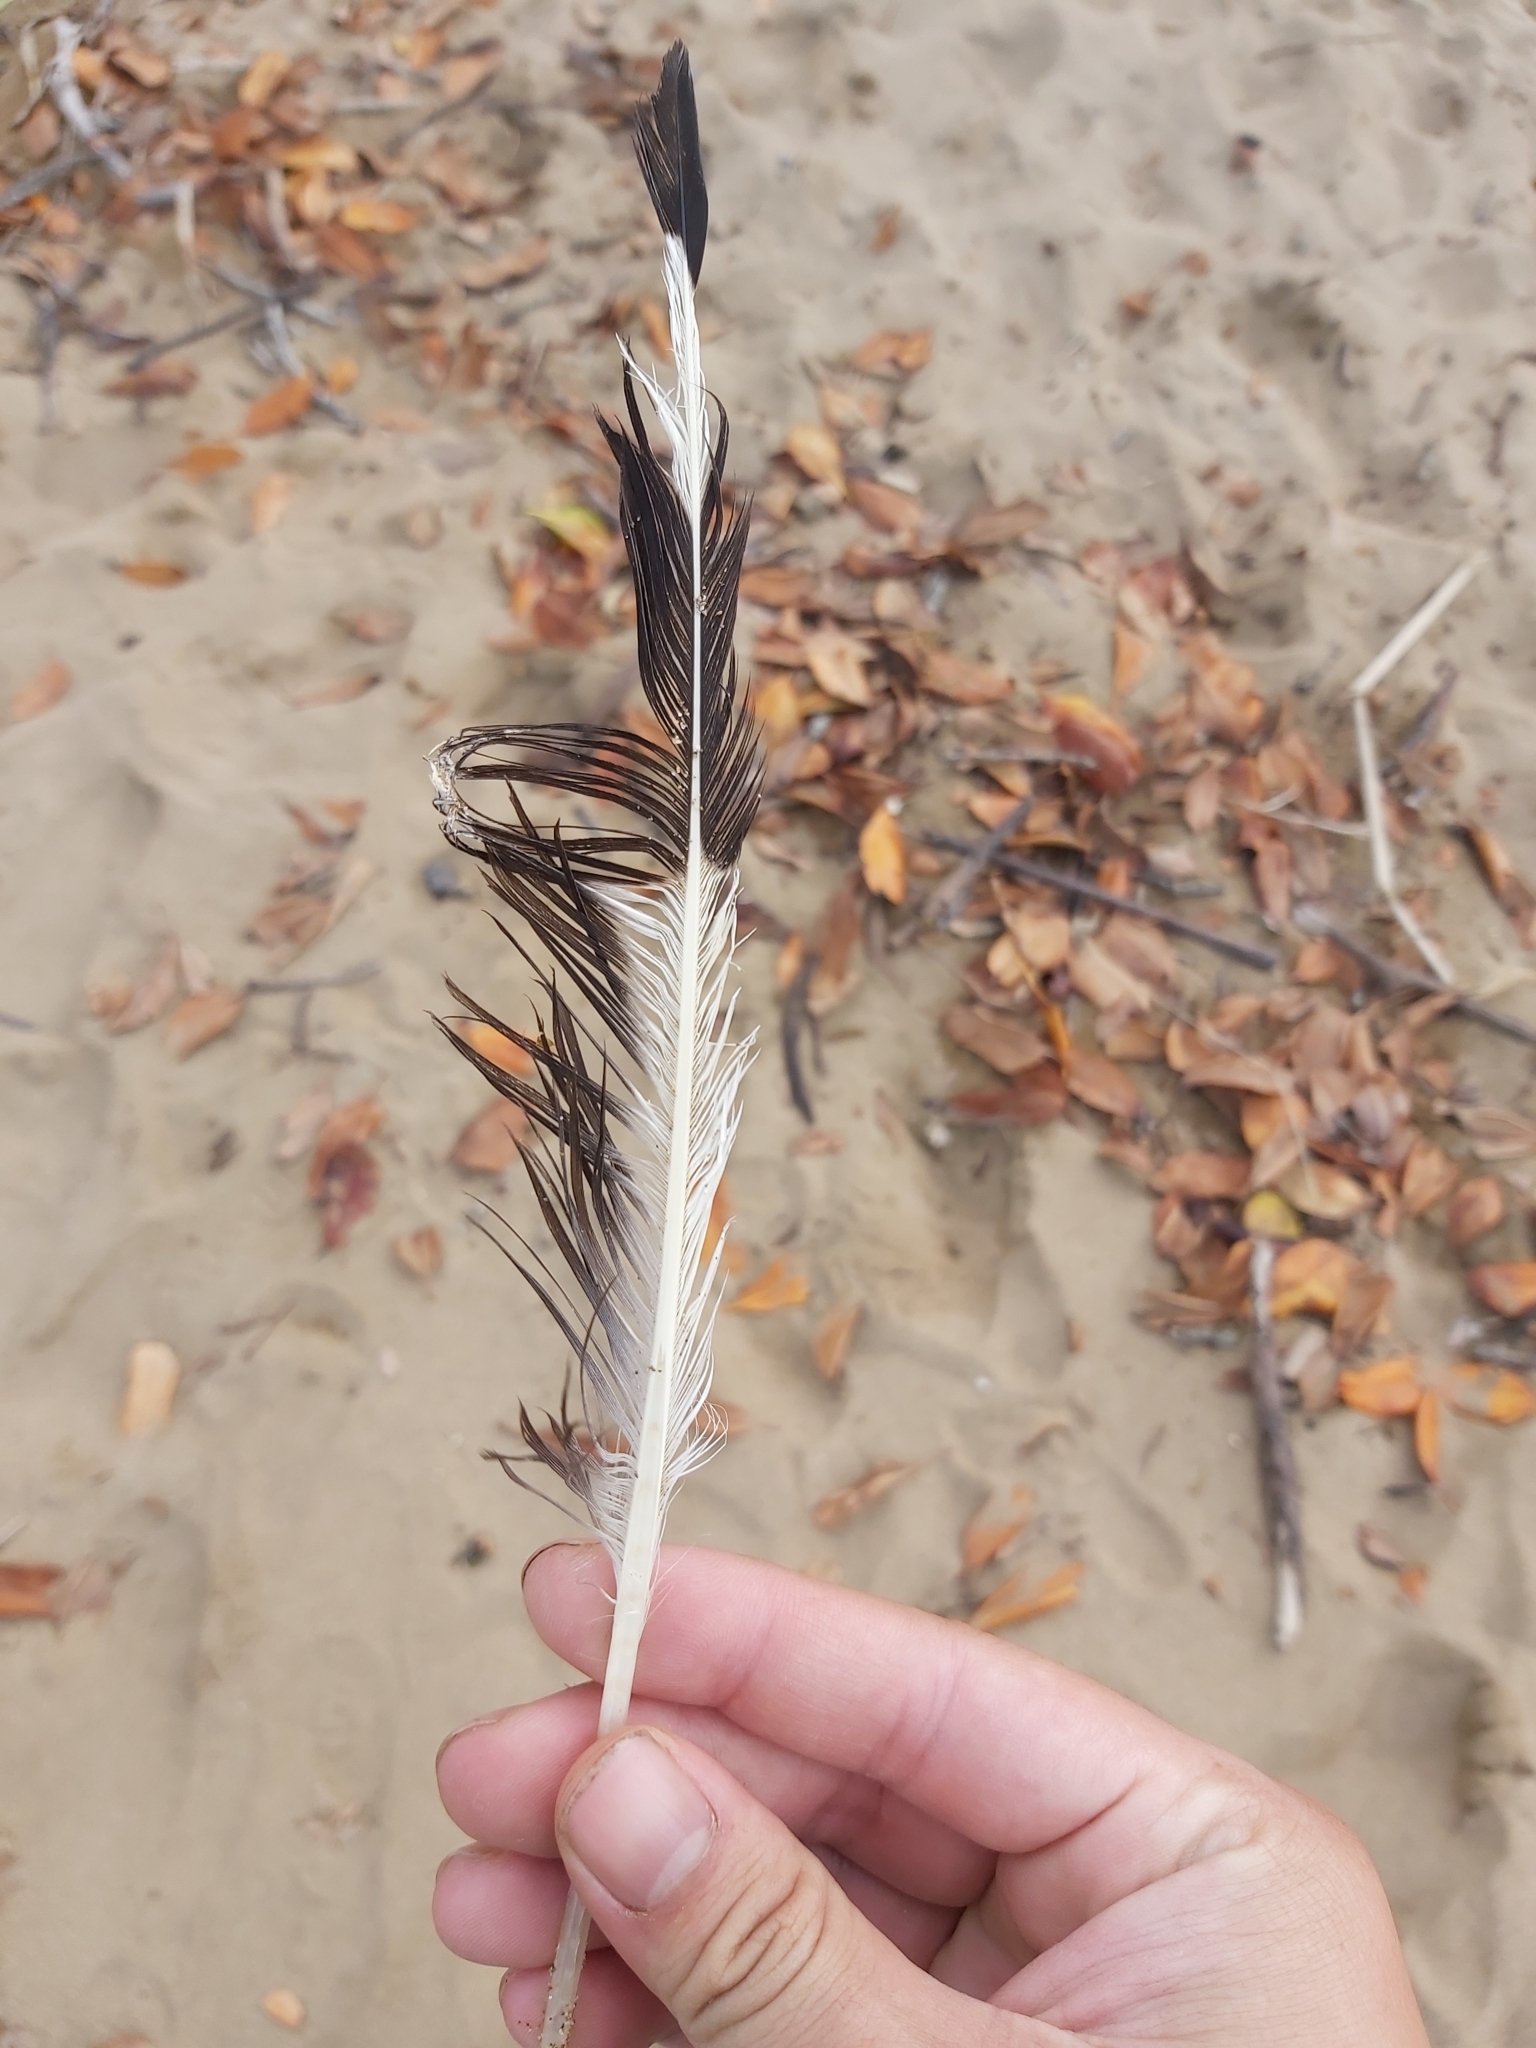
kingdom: Animalia
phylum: Chordata
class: Aves
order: Charadriiformes
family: Laridae
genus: Chroicocephalus
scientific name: Chroicocephalus novaehollandiae
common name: Silver gull
